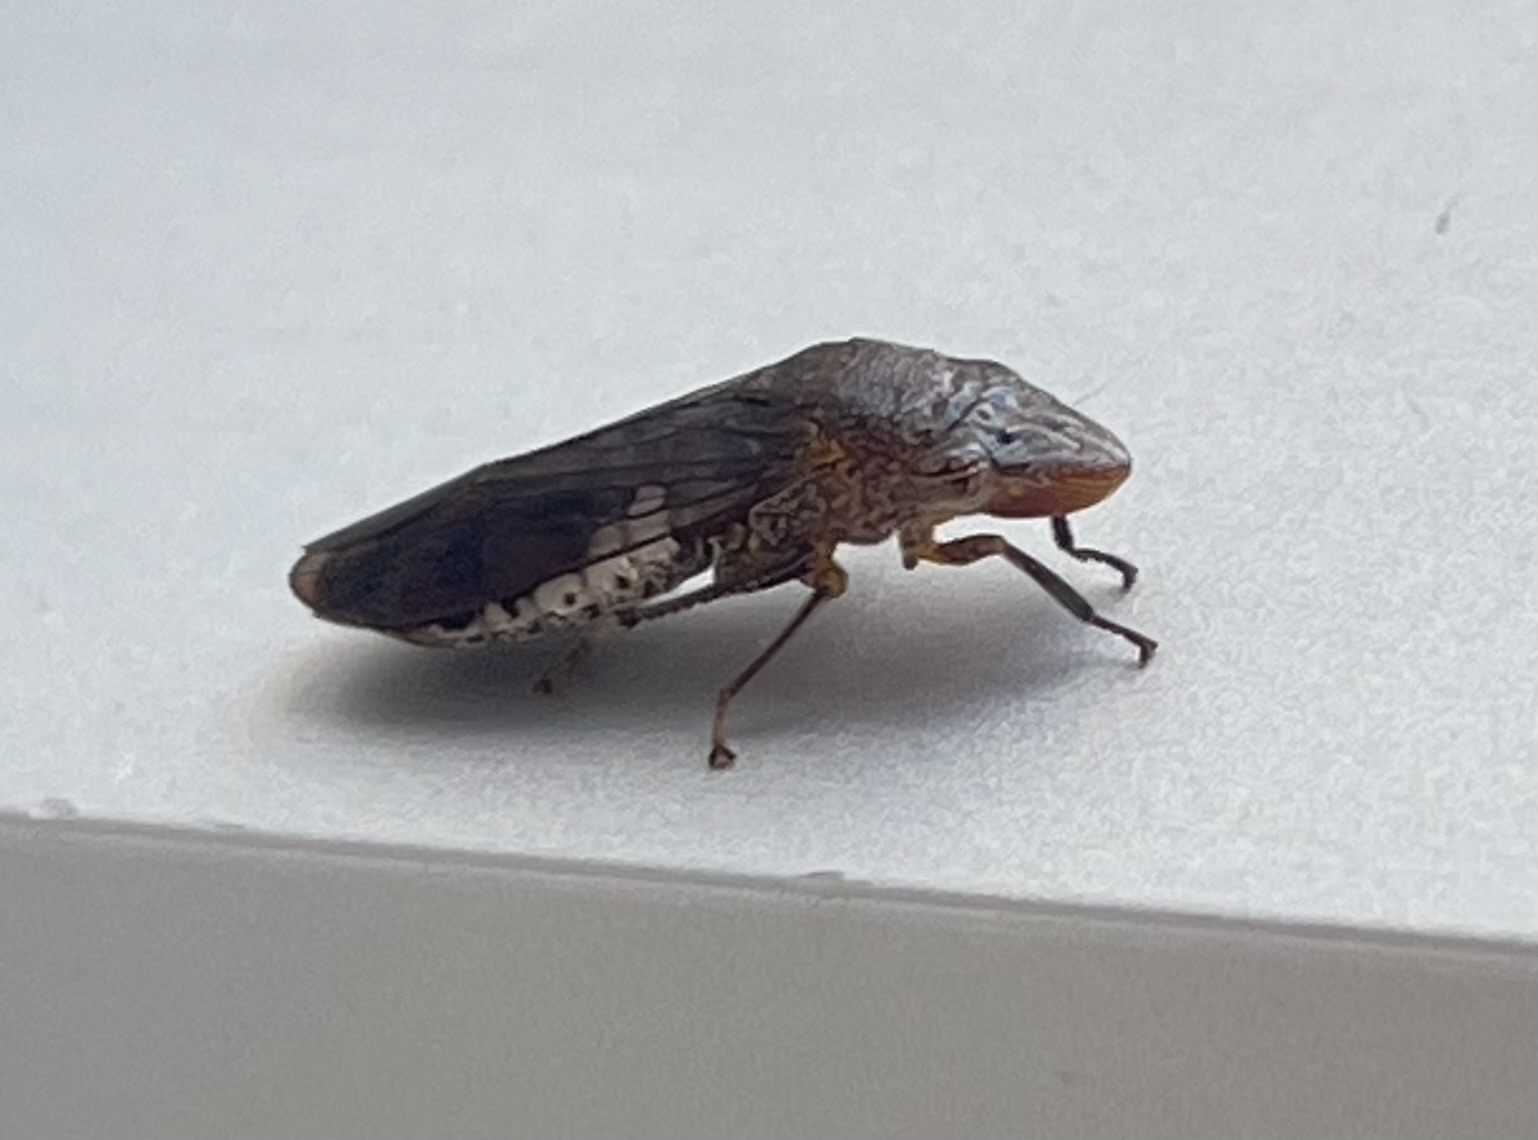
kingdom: Animalia
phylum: Arthropoda
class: Insecta
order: Hemiptera
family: Cicadellidae
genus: Homalodisca
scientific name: Homalodisca vitripennis
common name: Glassy-winged sharpshooter
